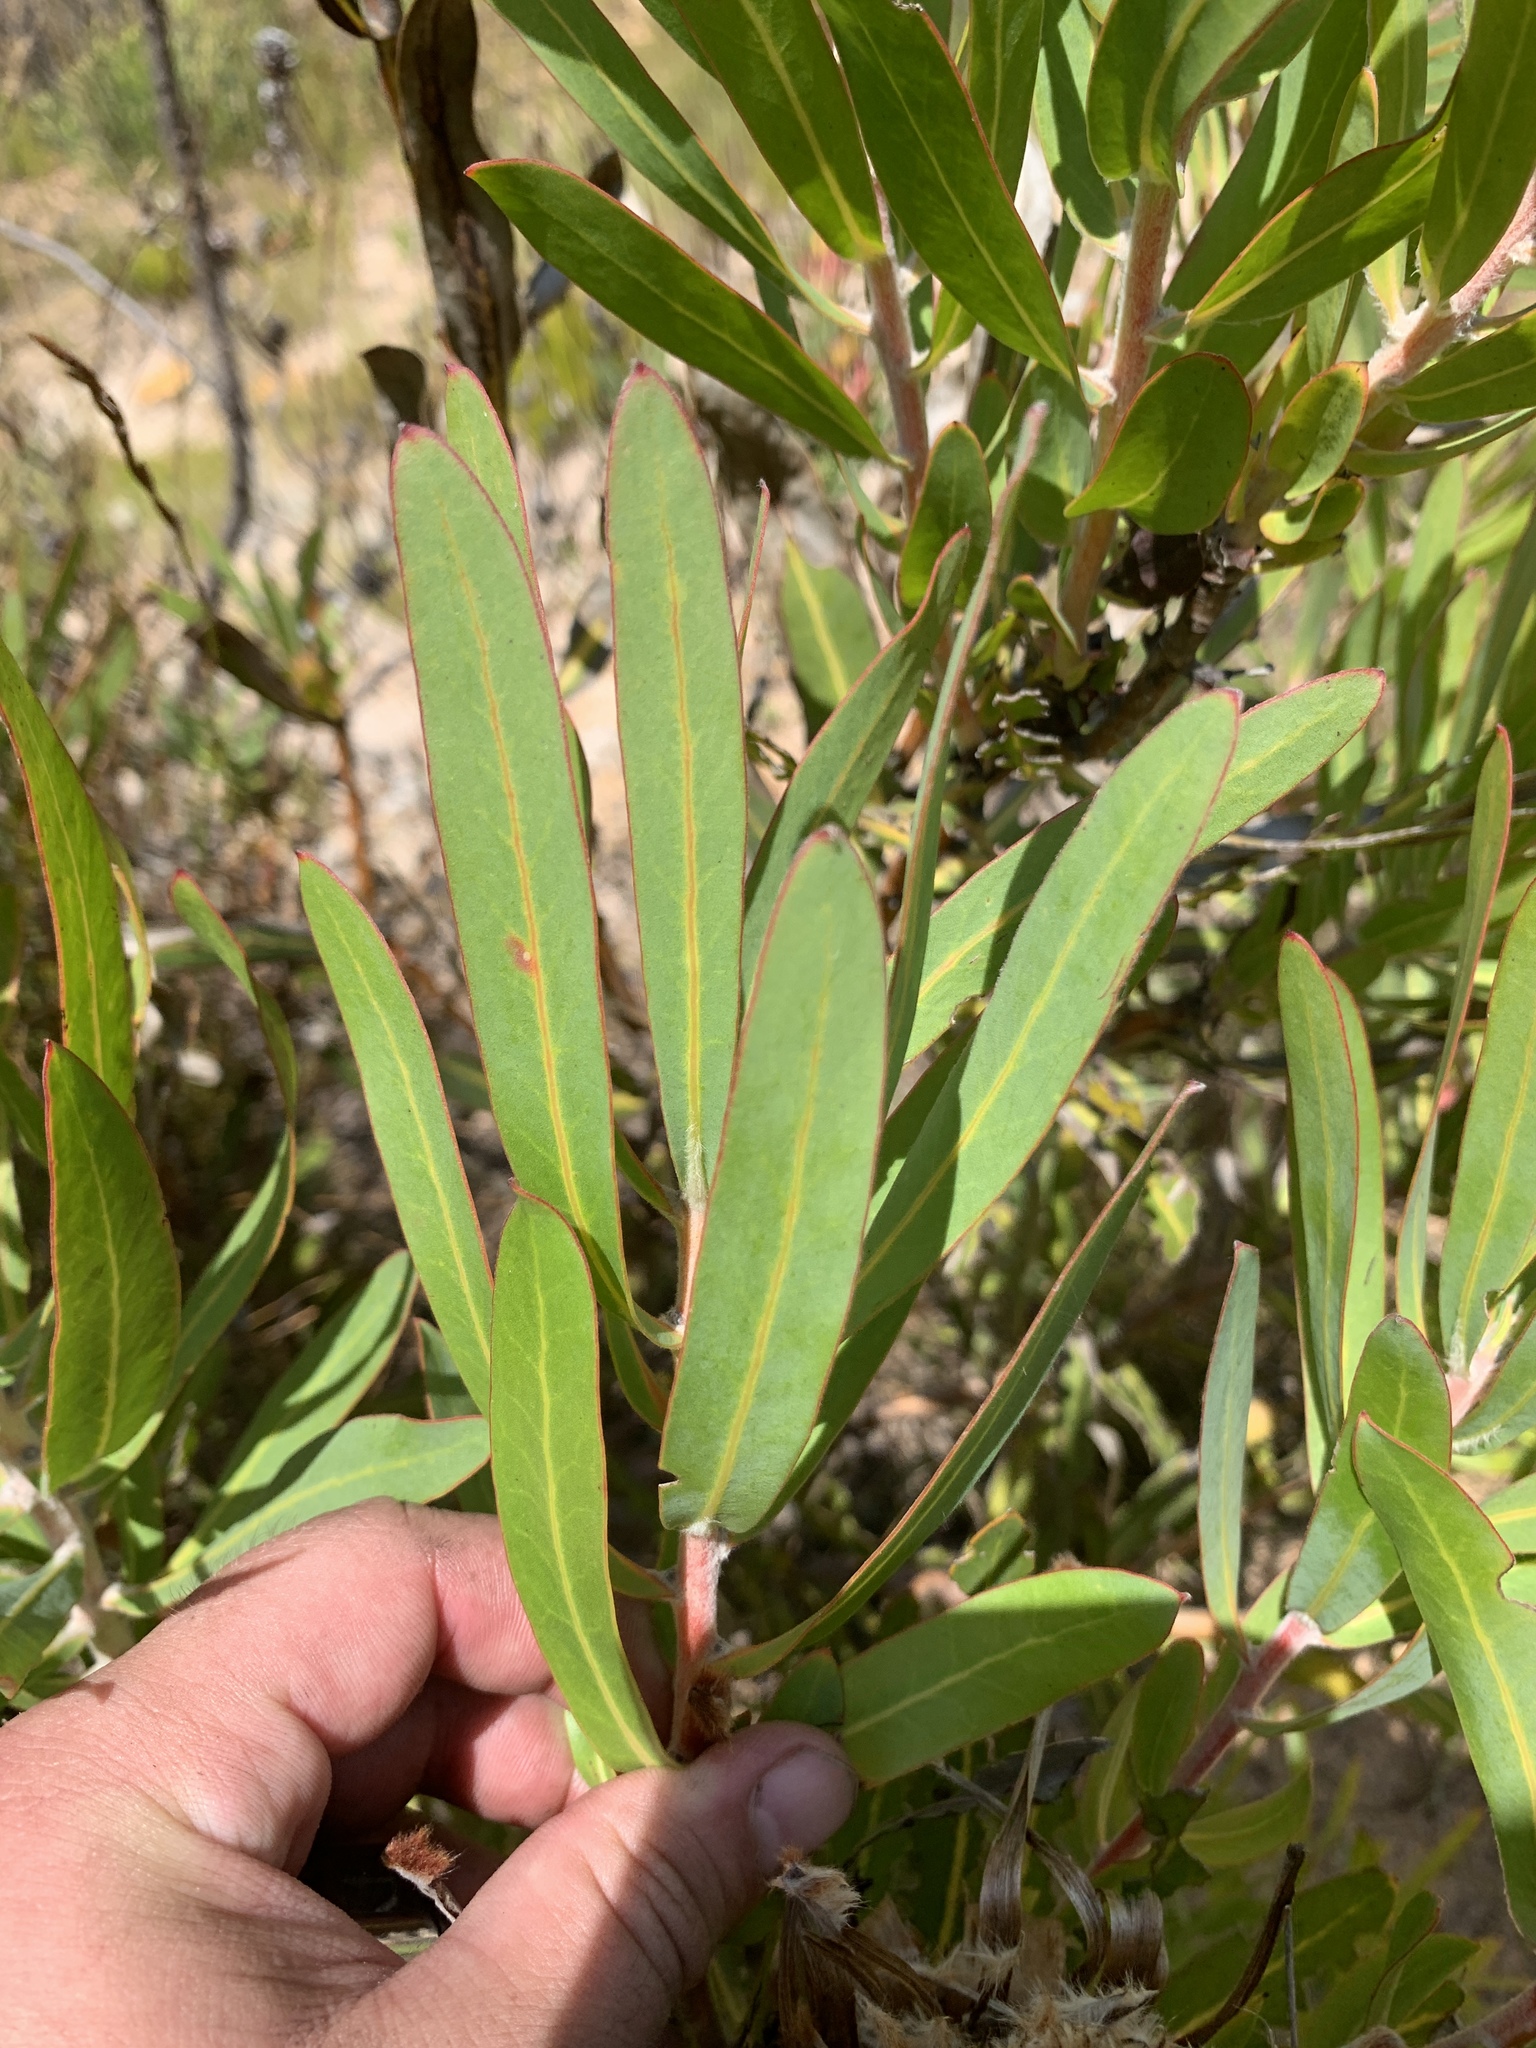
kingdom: Plantae
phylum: Tracheophyta
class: Magnoliopsida
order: Proteales
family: Proteaceae
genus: Protea
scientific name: Protea laurifolia
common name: Grey-leaf sugarbsh
